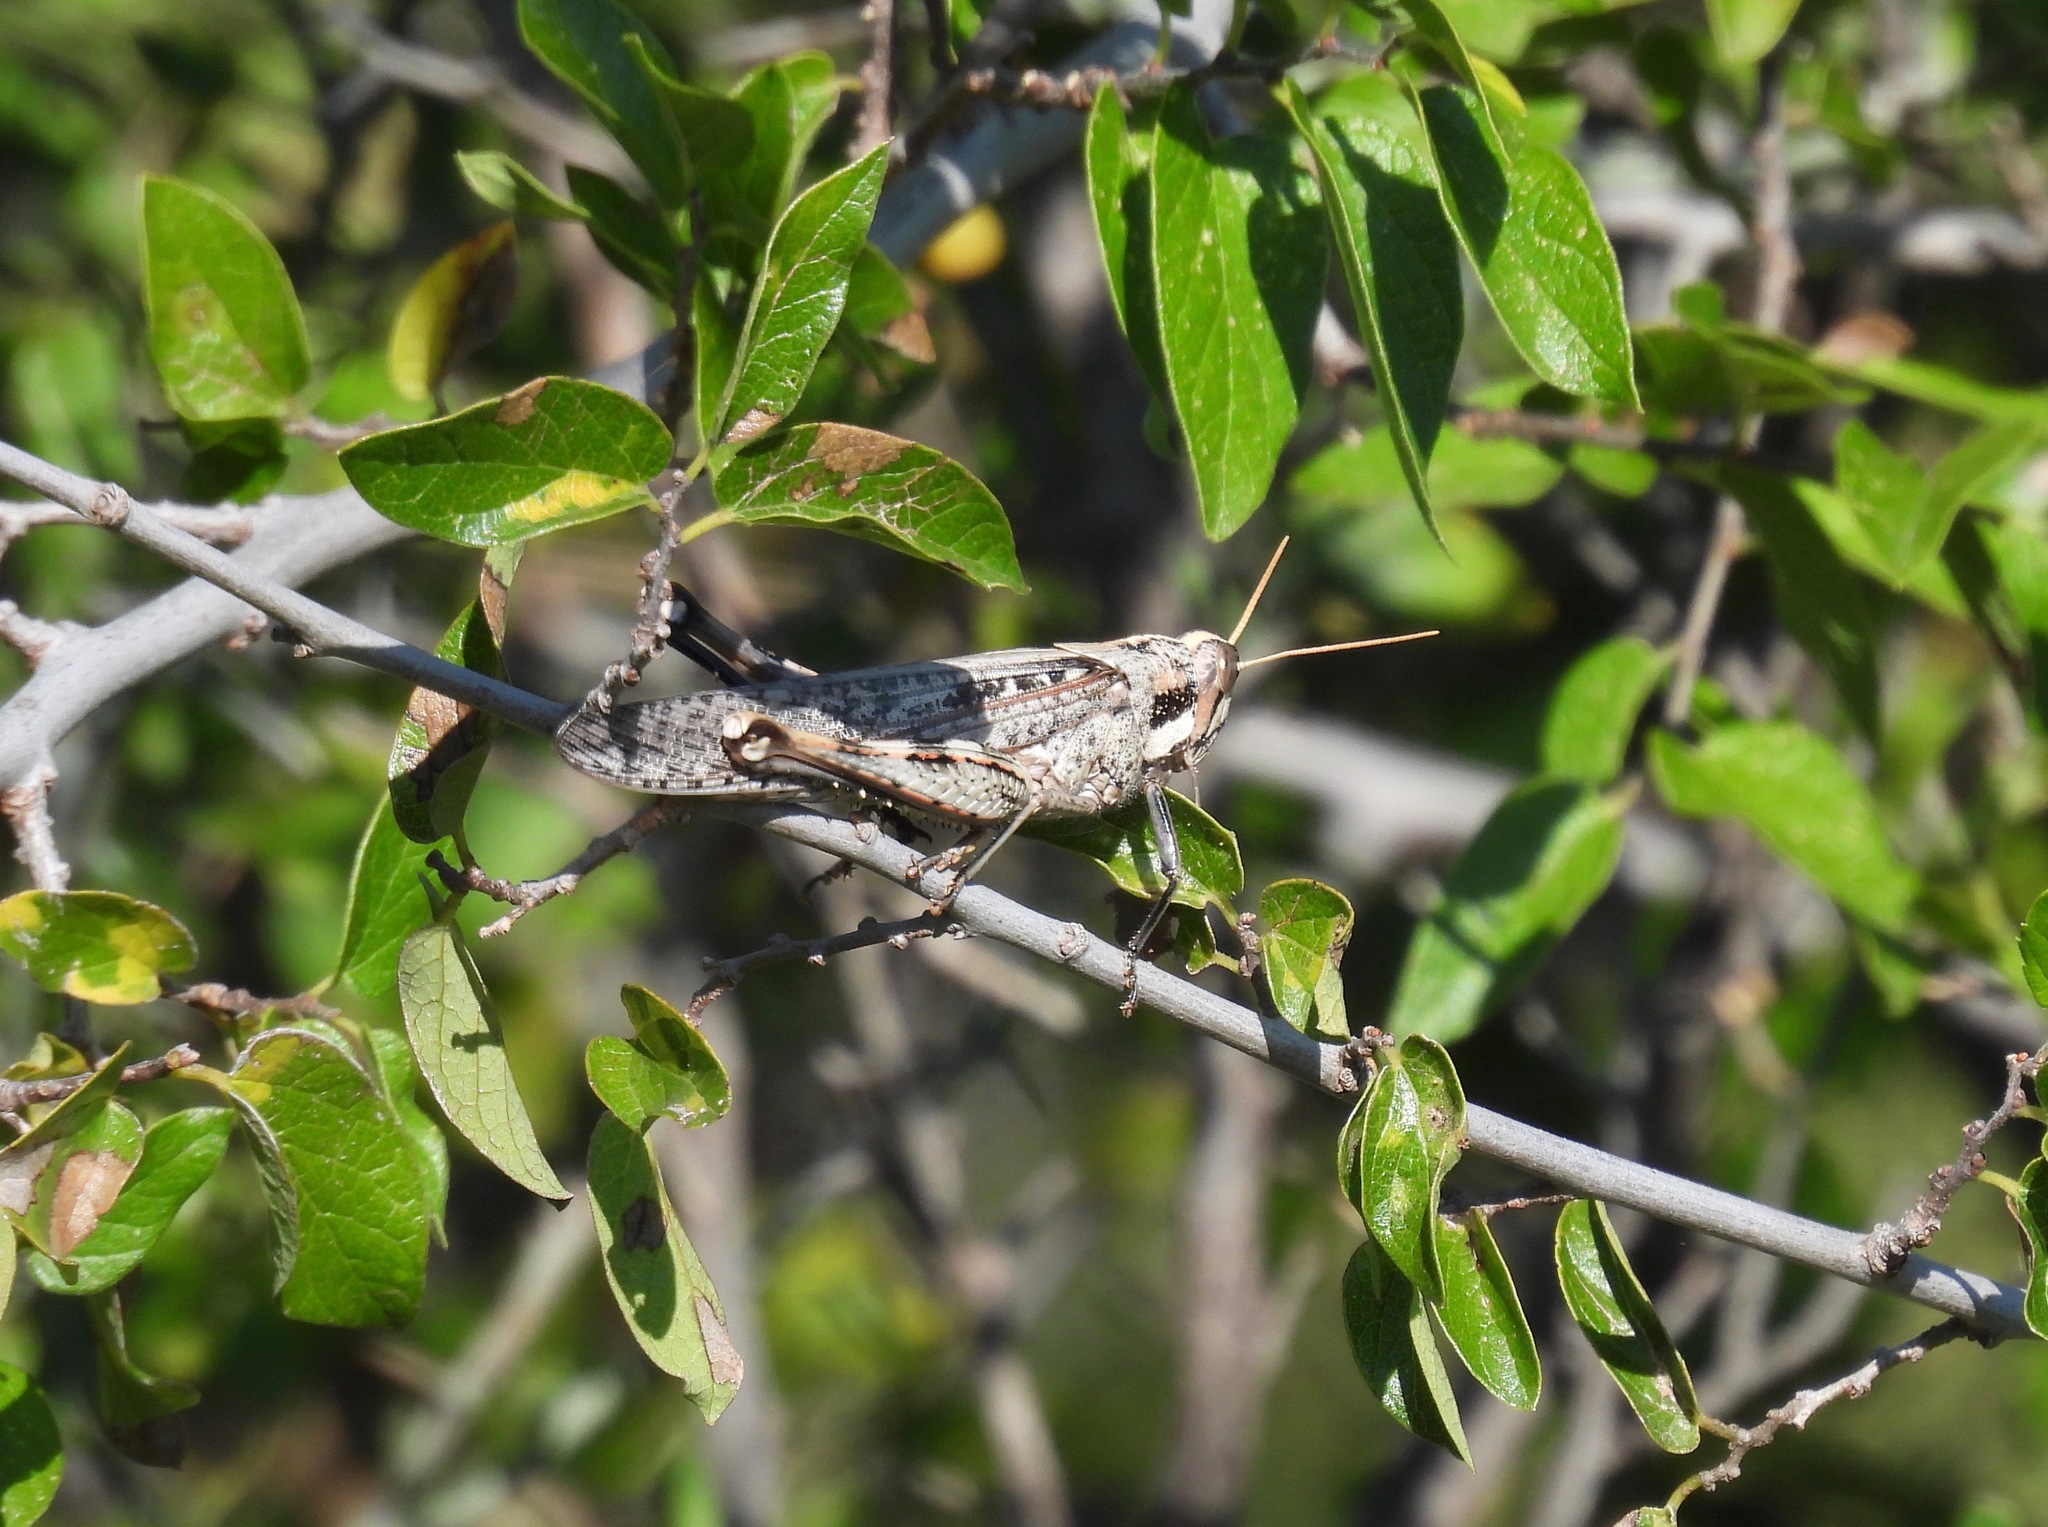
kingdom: Animalia
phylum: Arthropoda
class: Insecta
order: Orthoptera
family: Acrididae
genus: Schistocerca
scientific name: Schistocerca nitens
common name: Vagrant grasshopper
